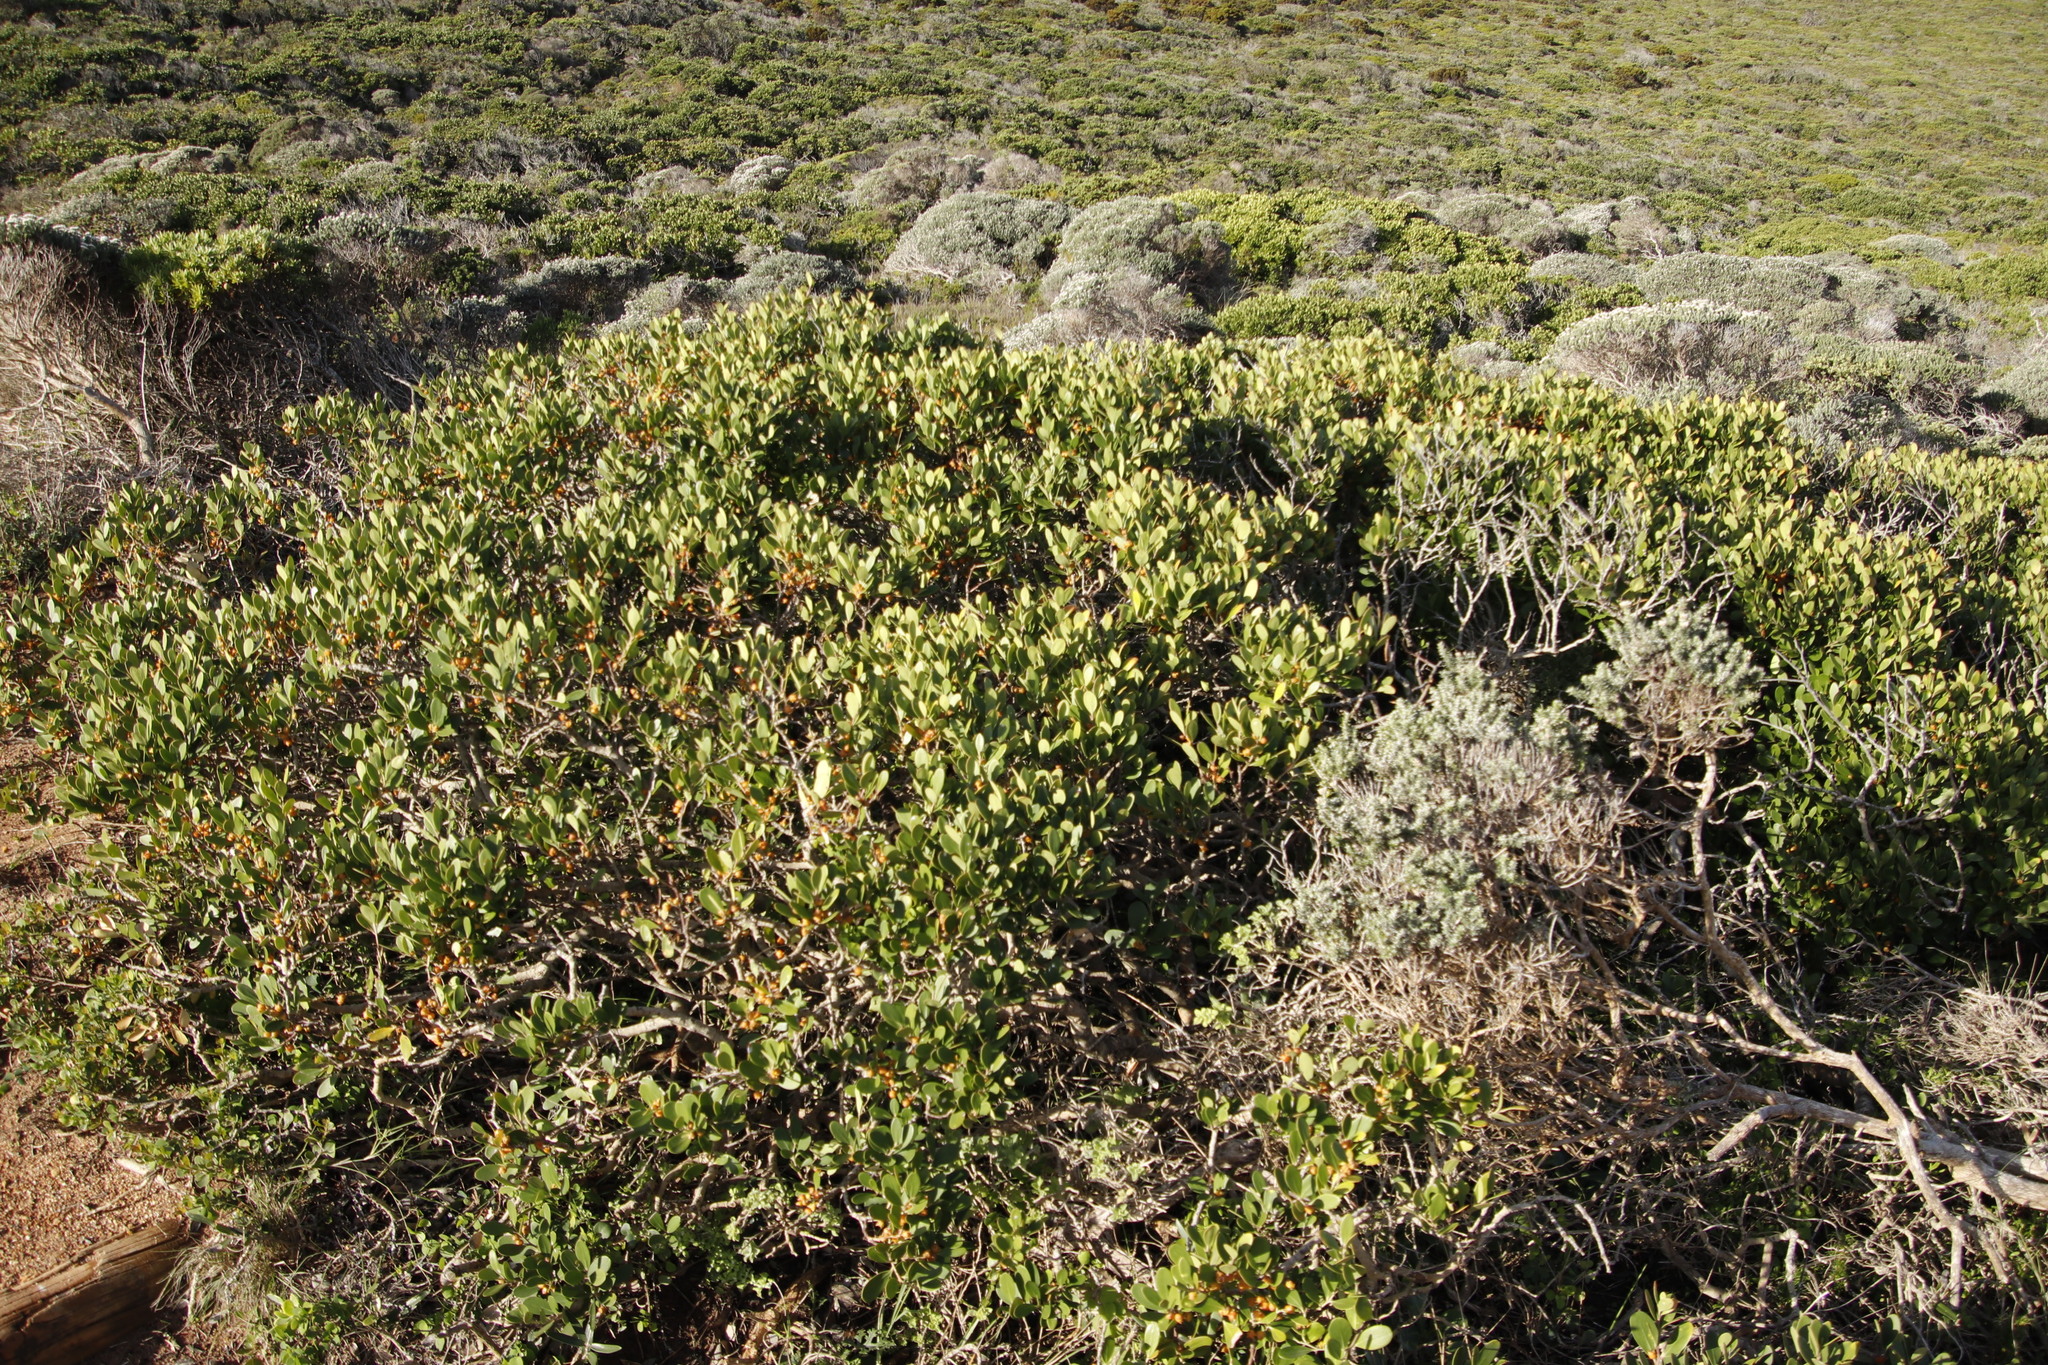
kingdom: Plantae
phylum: Tracheophyta
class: Magnoliopsida
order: Celastrales
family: Celastraceae
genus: Pterocelastrus
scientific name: Pterocelastrus tricuspidatus
